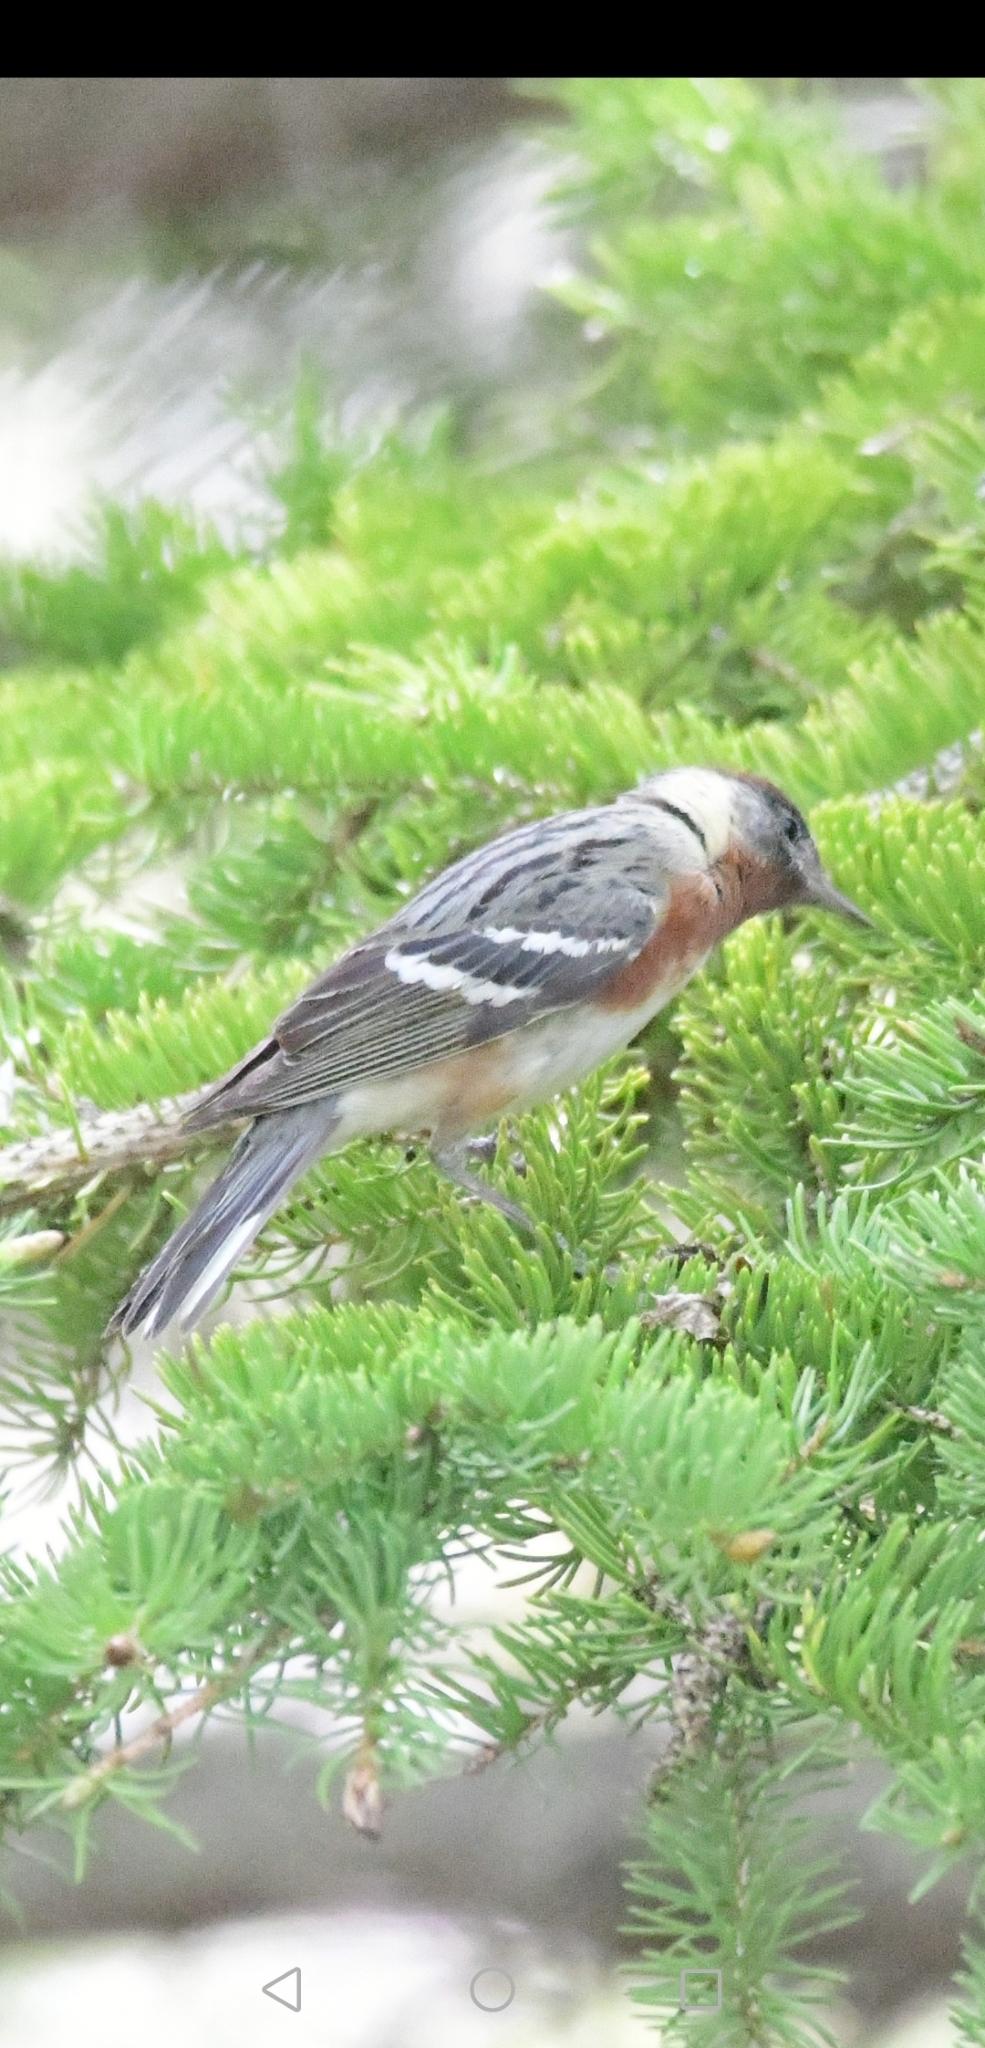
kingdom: Animalia
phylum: Chordata
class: Aves
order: Passeriformes
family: Parulidae
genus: Setophaga
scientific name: Setophaga castanea
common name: Bay-breasted warbler
